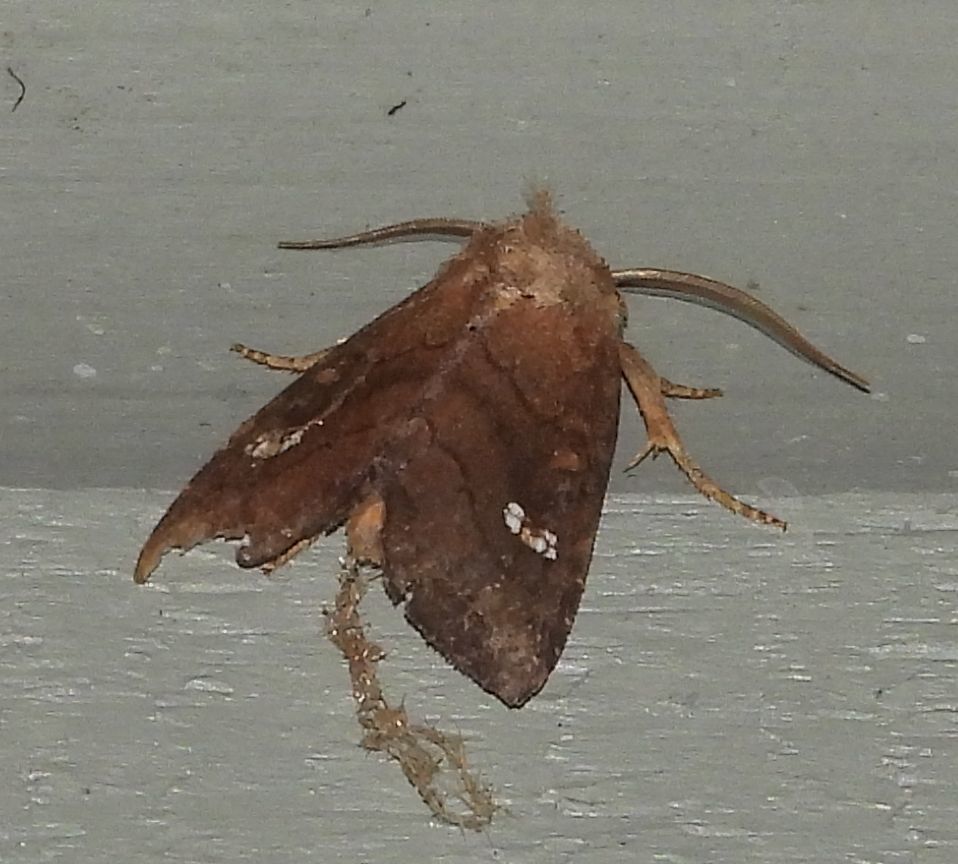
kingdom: Animalia
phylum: Arthropoda
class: Insecta
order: Lepidoptera
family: Noctuidae
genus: Tricholita
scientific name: Tricholita signata
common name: Signate quaker
